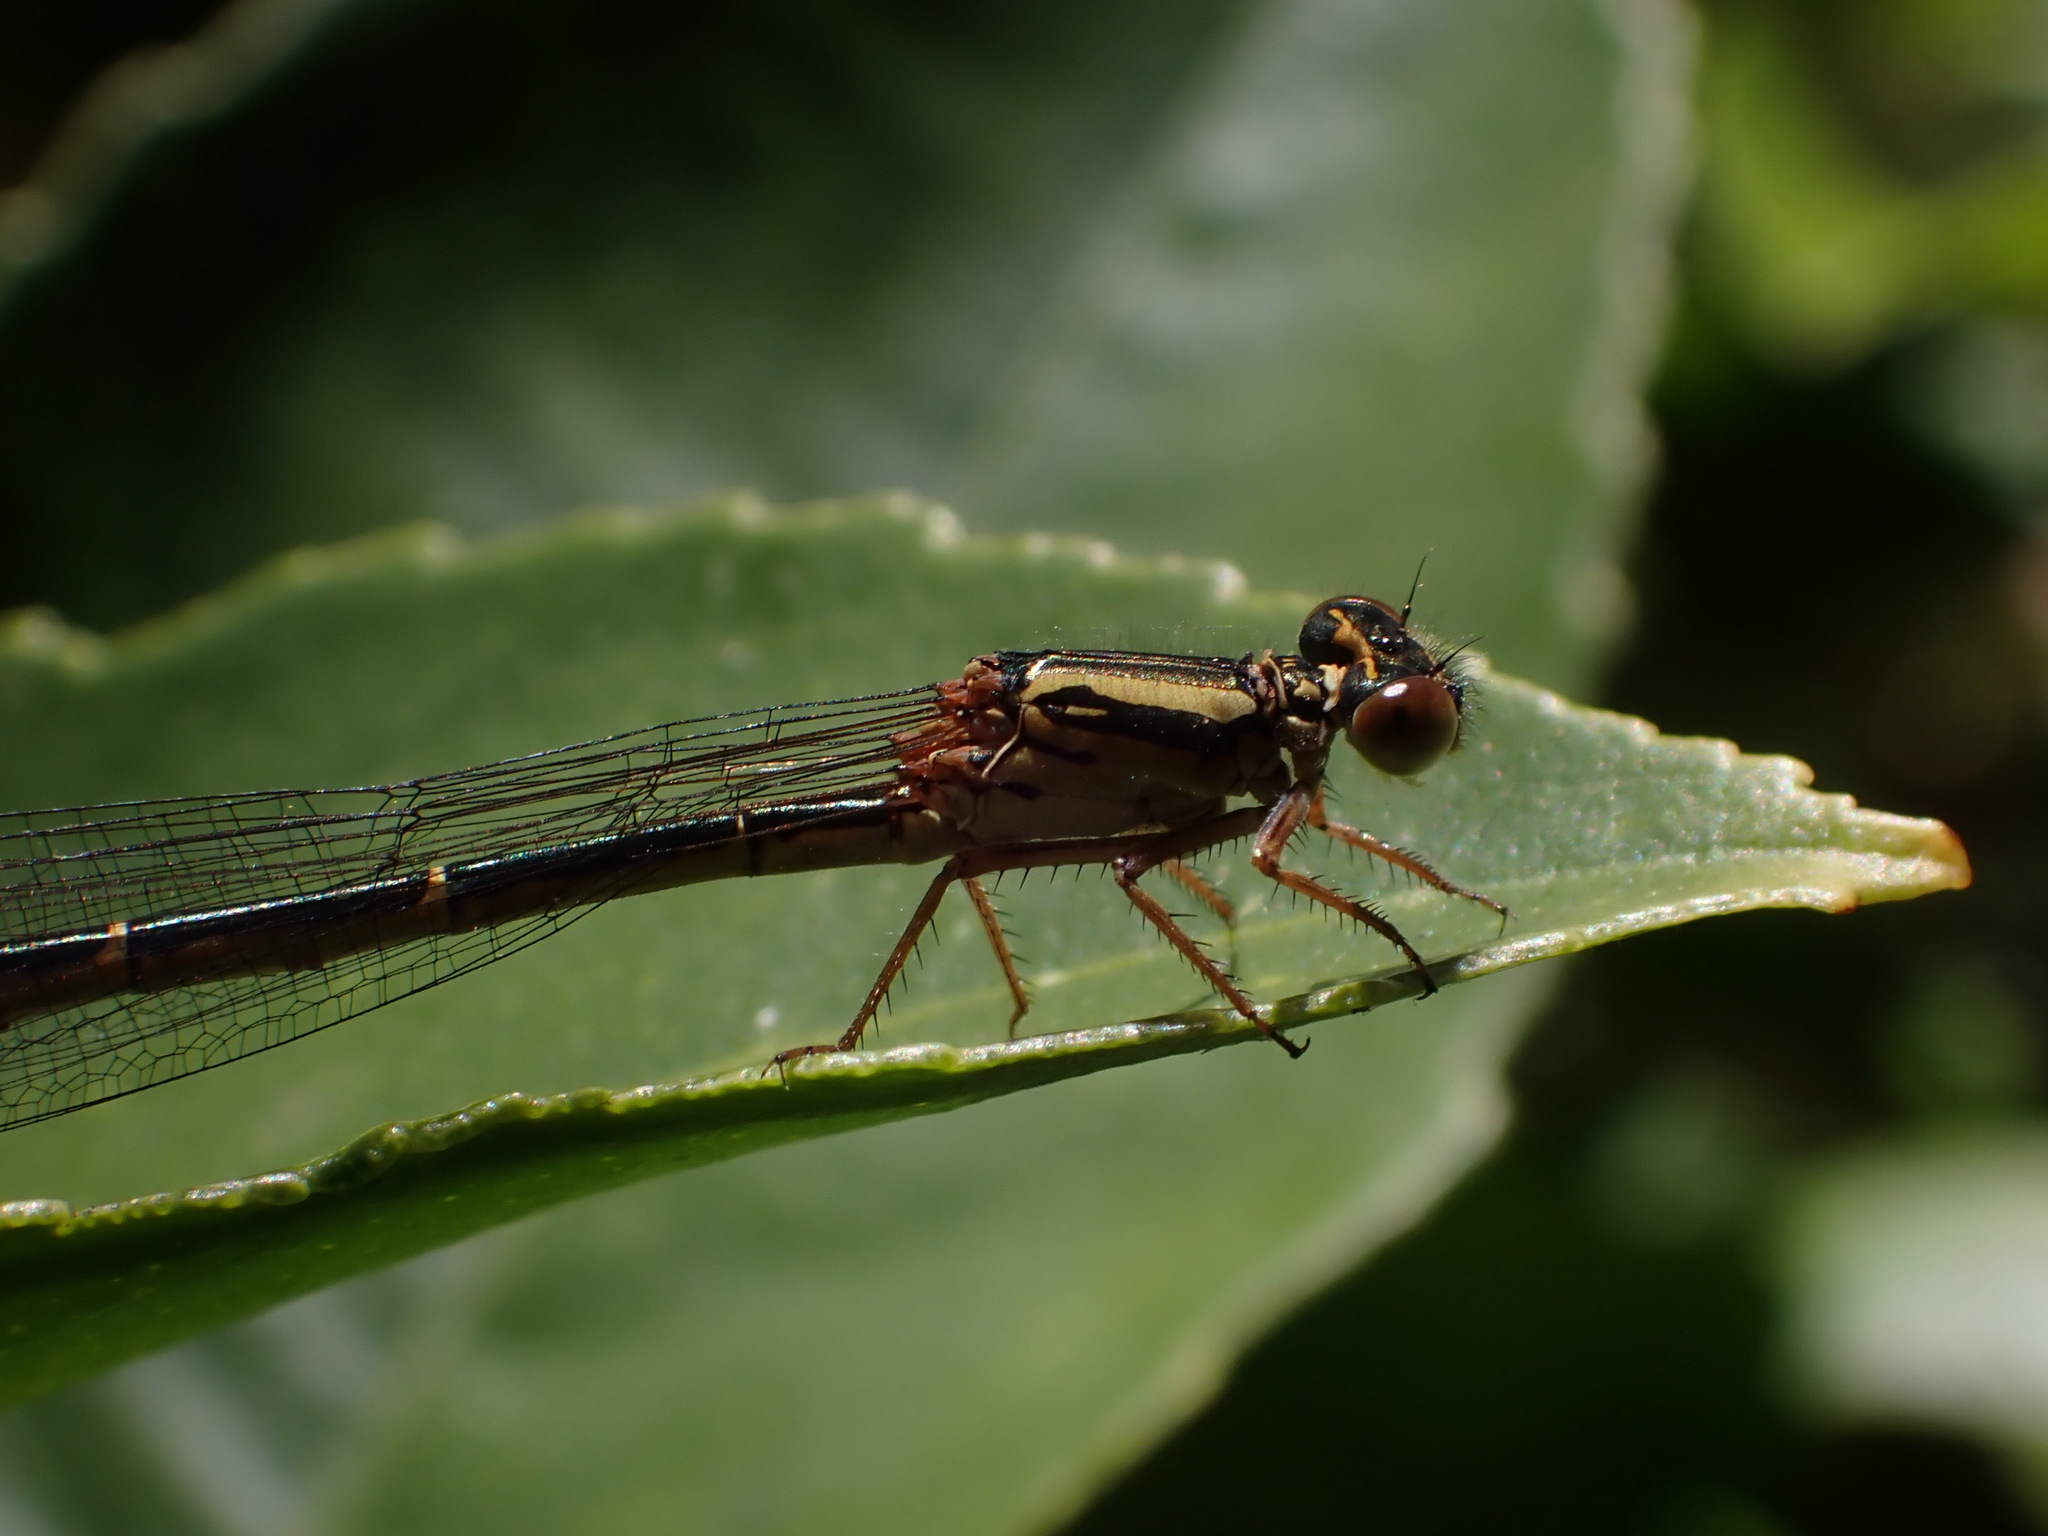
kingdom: Animalia
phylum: Arthropoda
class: Insecta
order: Odonata
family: Coenagrionidae
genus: Xanthocnemis
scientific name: Xanthocnemis zealandica
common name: Common redcoat damselfly
